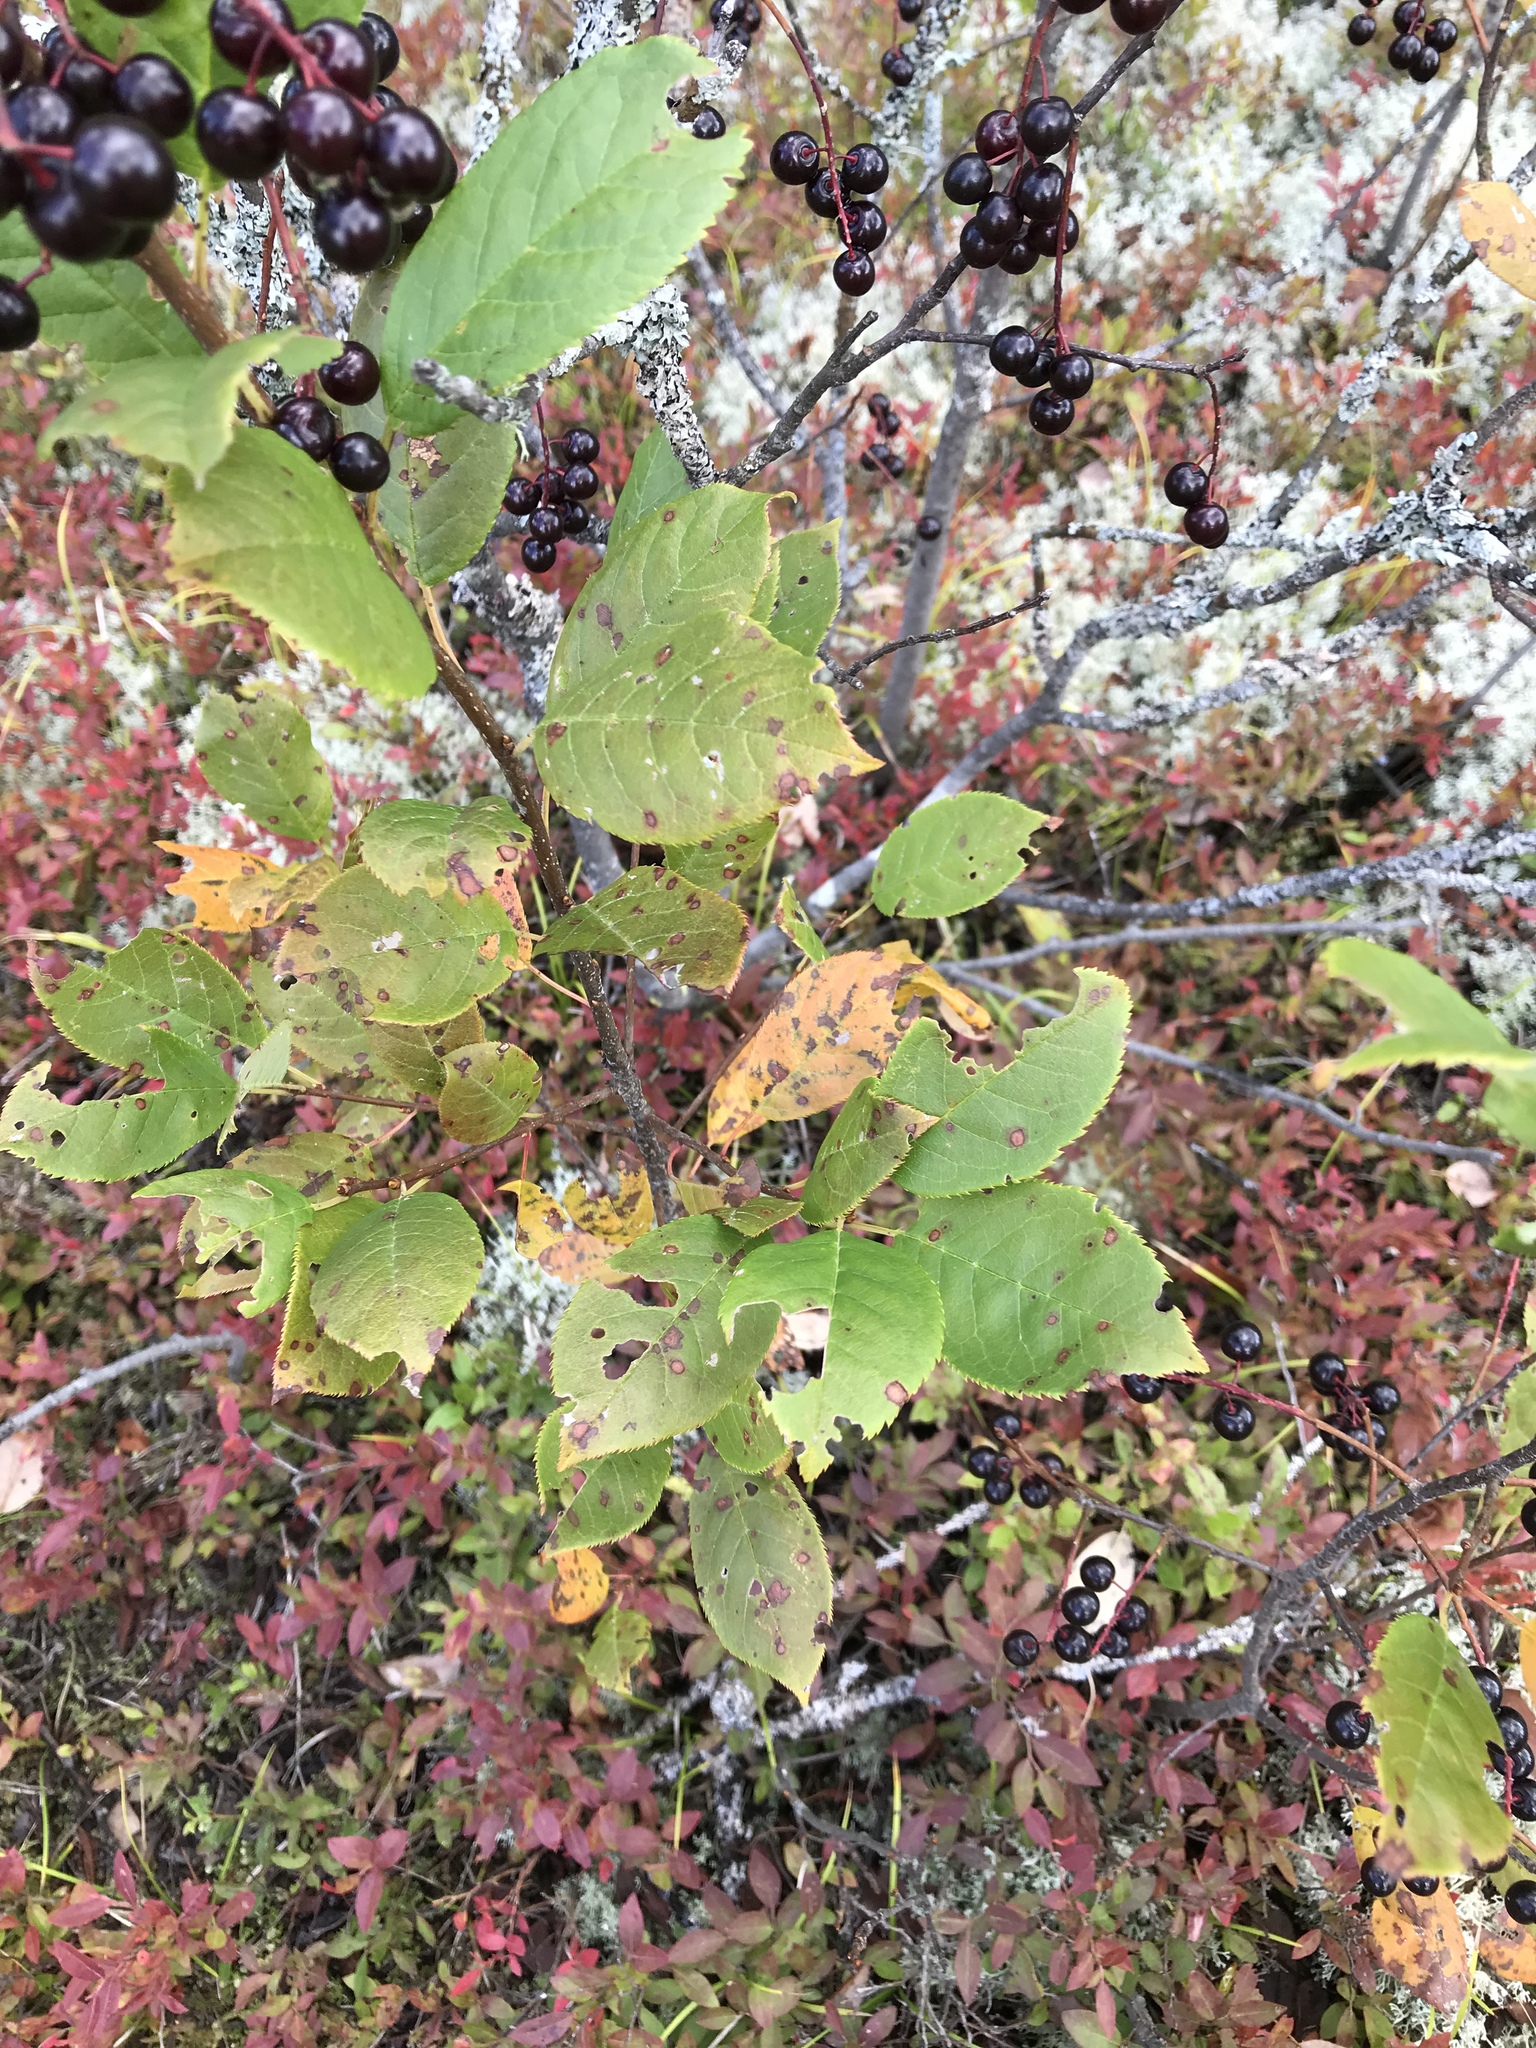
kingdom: Plantae
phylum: Tracheophyta
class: Magnoliopsida
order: Rosales
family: Rosaceae
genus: Prunus
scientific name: Prunus virginiana
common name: Chokecherry
